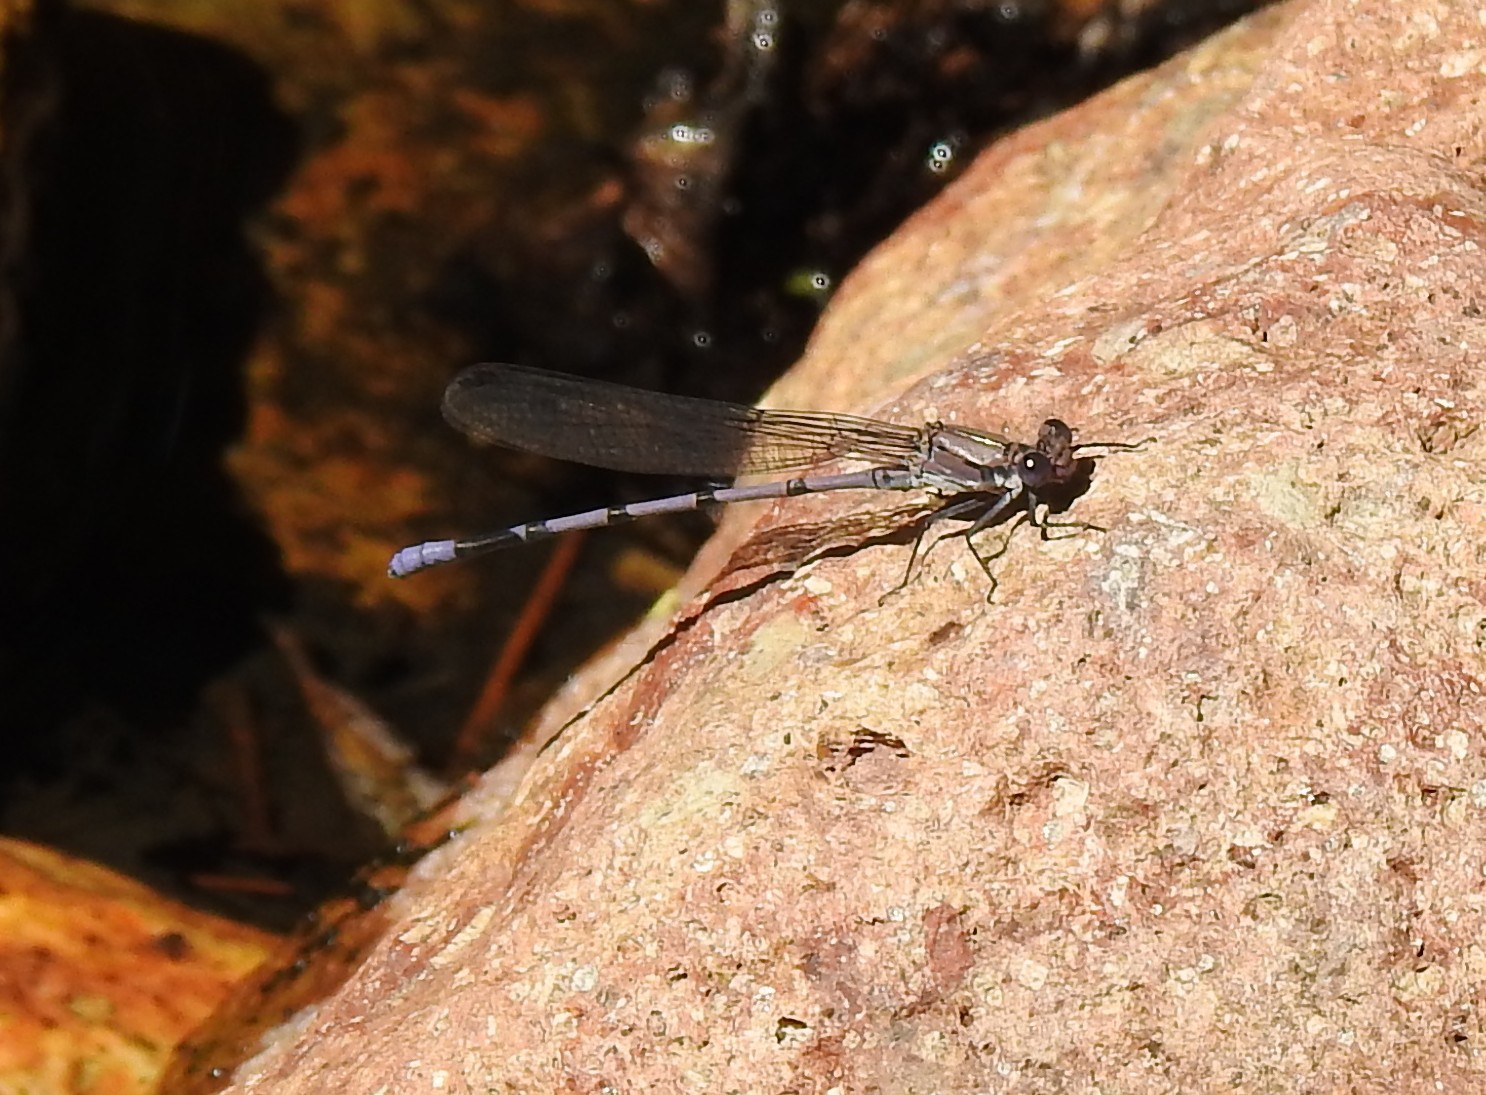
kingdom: Animalia
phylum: Arthropoda
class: Insecta
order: Odonata
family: Coenagrionidae
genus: Argia
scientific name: Argia tonto
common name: Tonto dancer
